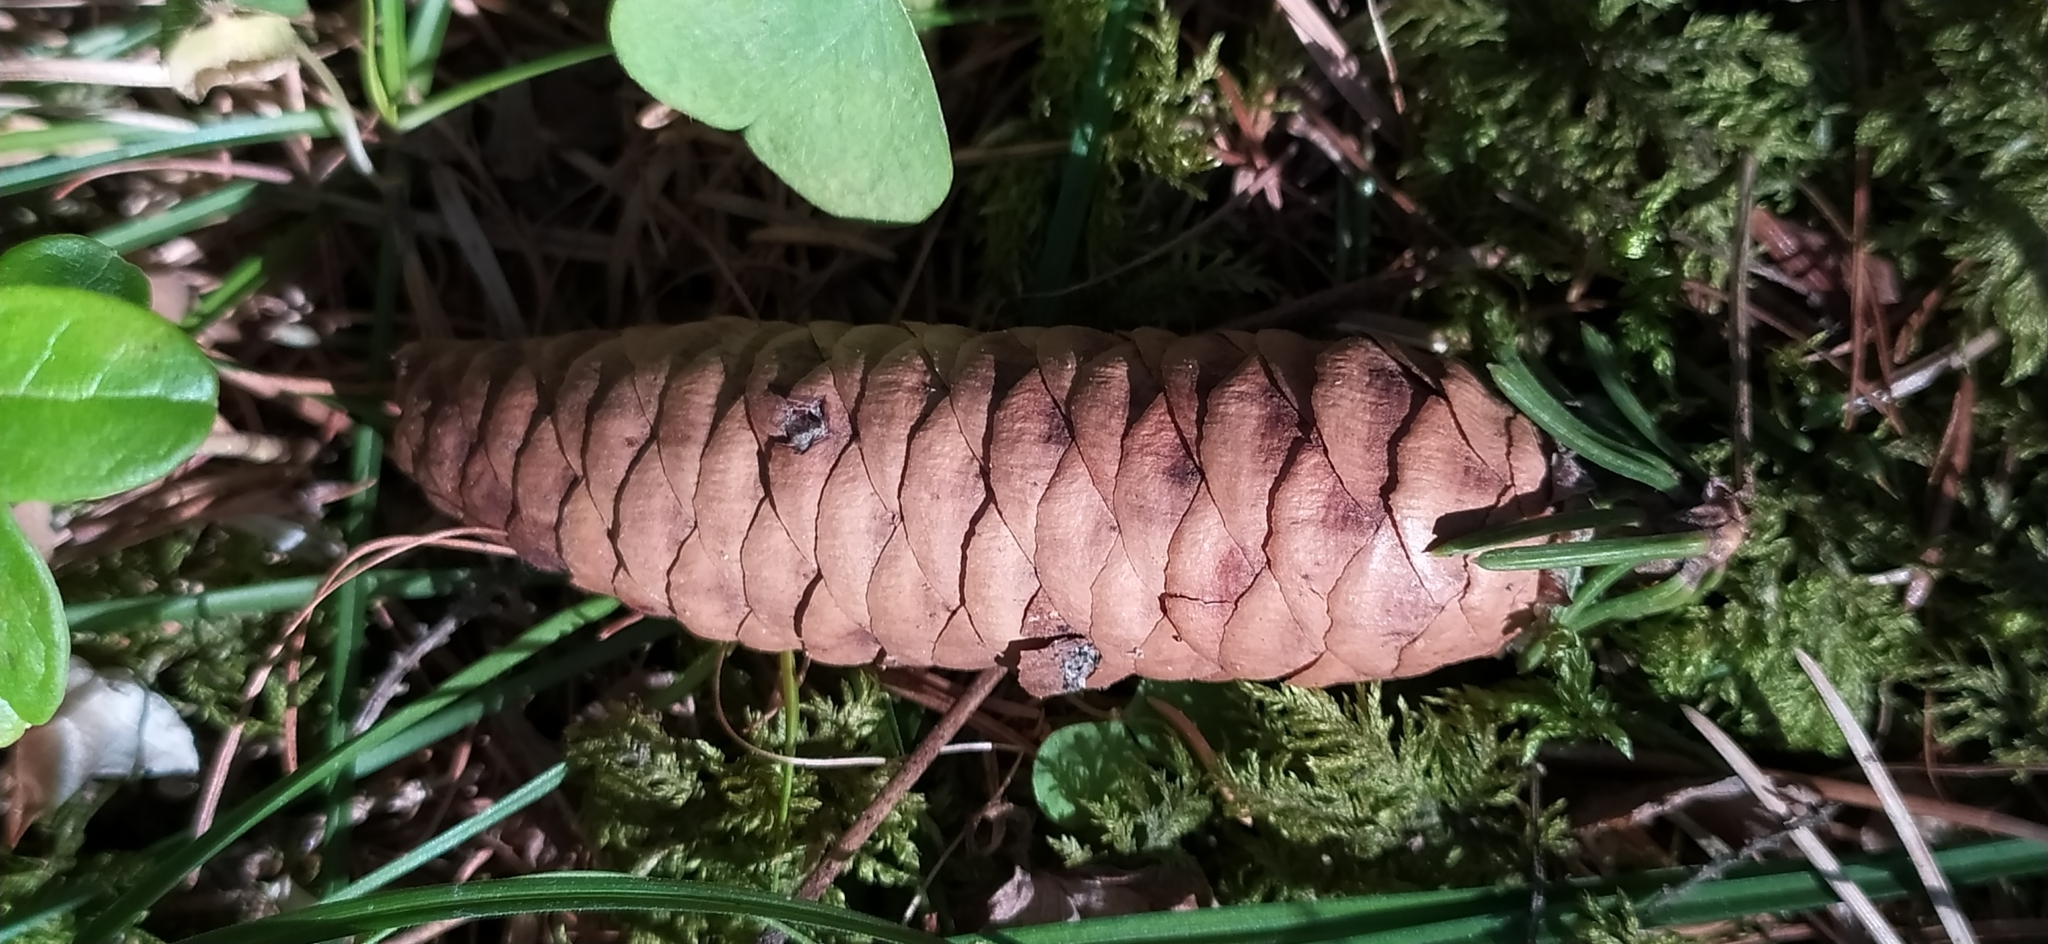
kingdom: Plantae
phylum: Tracheophyta
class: Pinopsida
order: Pinales
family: Pinaceae
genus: Picea
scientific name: Picea obovata
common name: Siberian spruce
